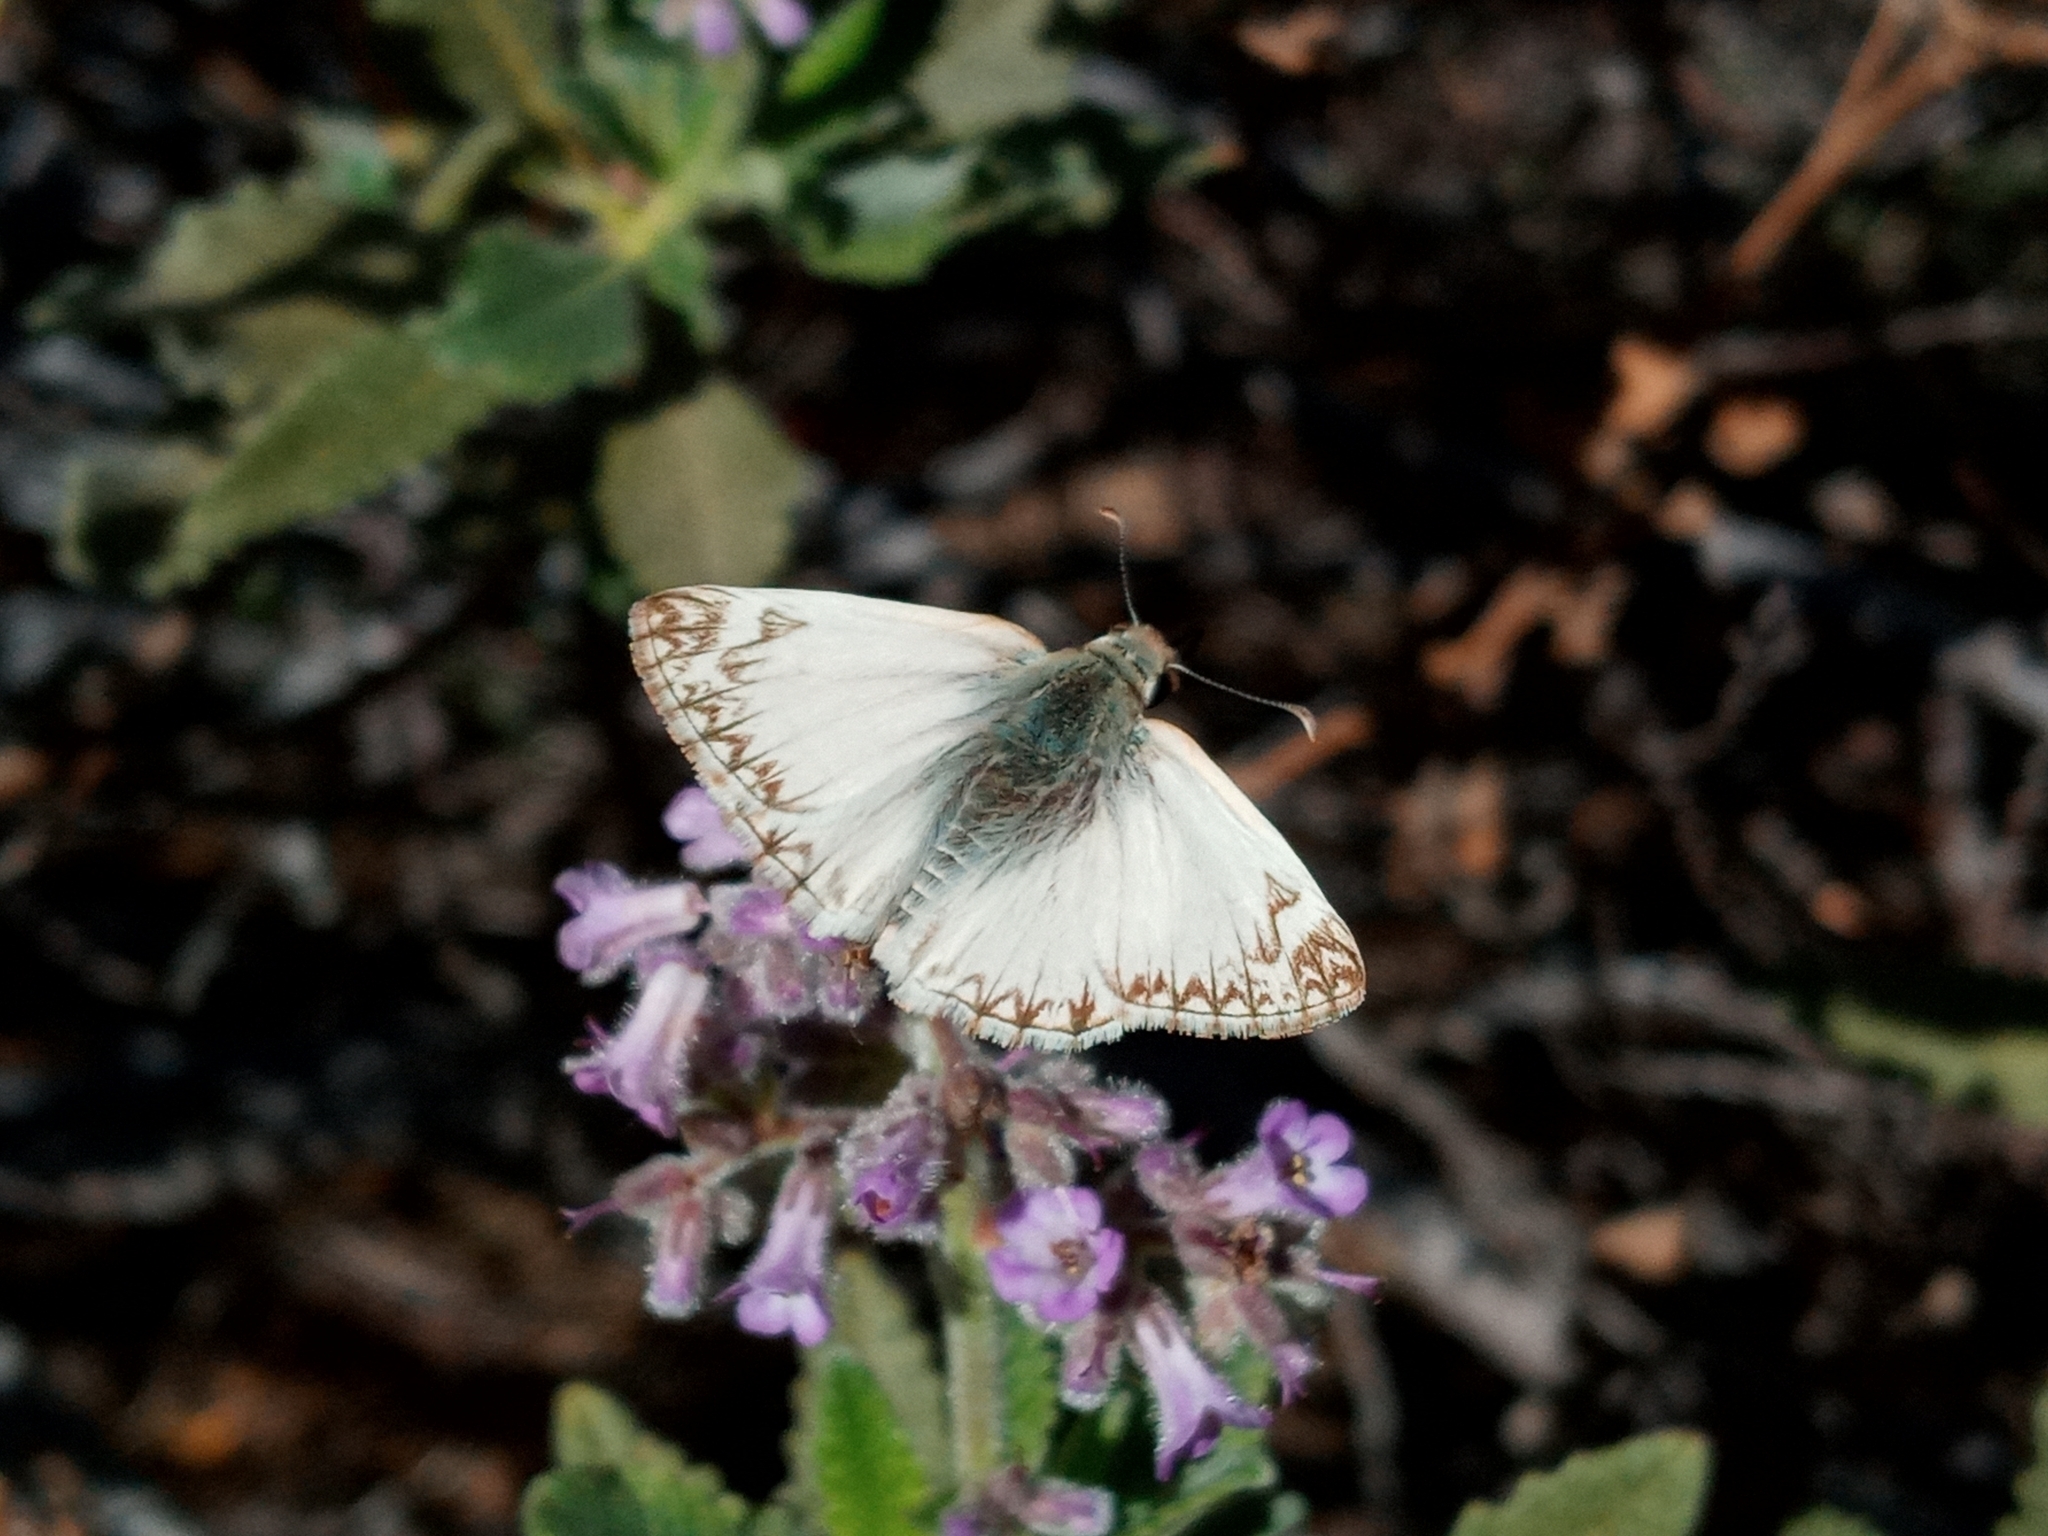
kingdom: Animalia
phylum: Arthropoda
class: Insecta
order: Lepidoptera
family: Hesperiidae
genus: Heliopetes
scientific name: Heliopetes ericetorum
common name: Northern white-skipper
